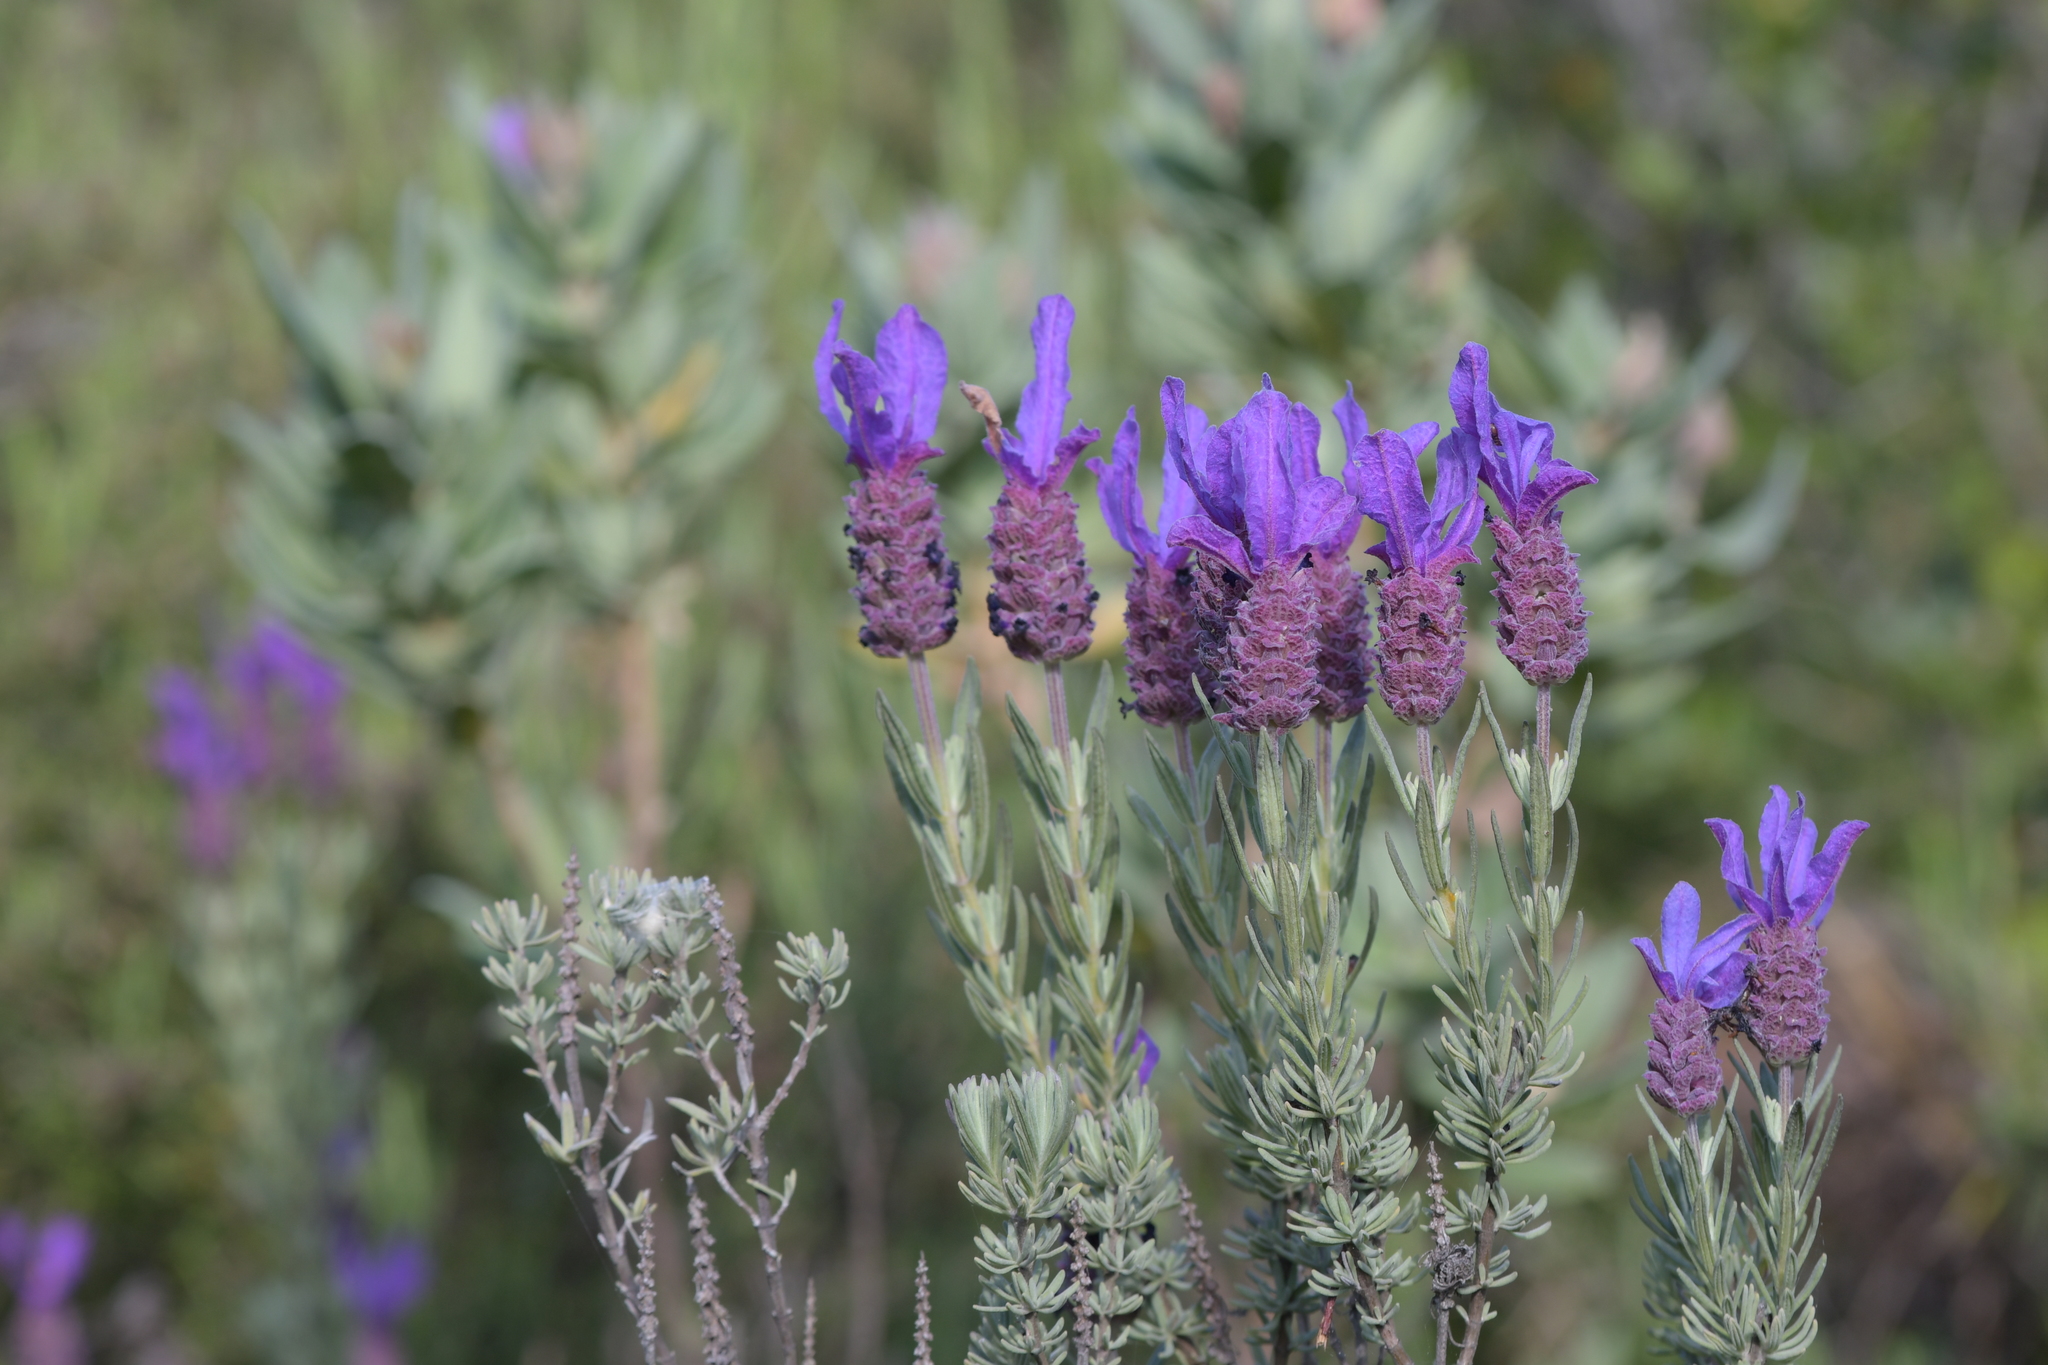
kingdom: Plantae
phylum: Tracheophyta
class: Magnoliopsida
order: Lamiales
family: Lamiaceae
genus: Lavandula
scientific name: Lavandula stoechas
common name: French lavender
